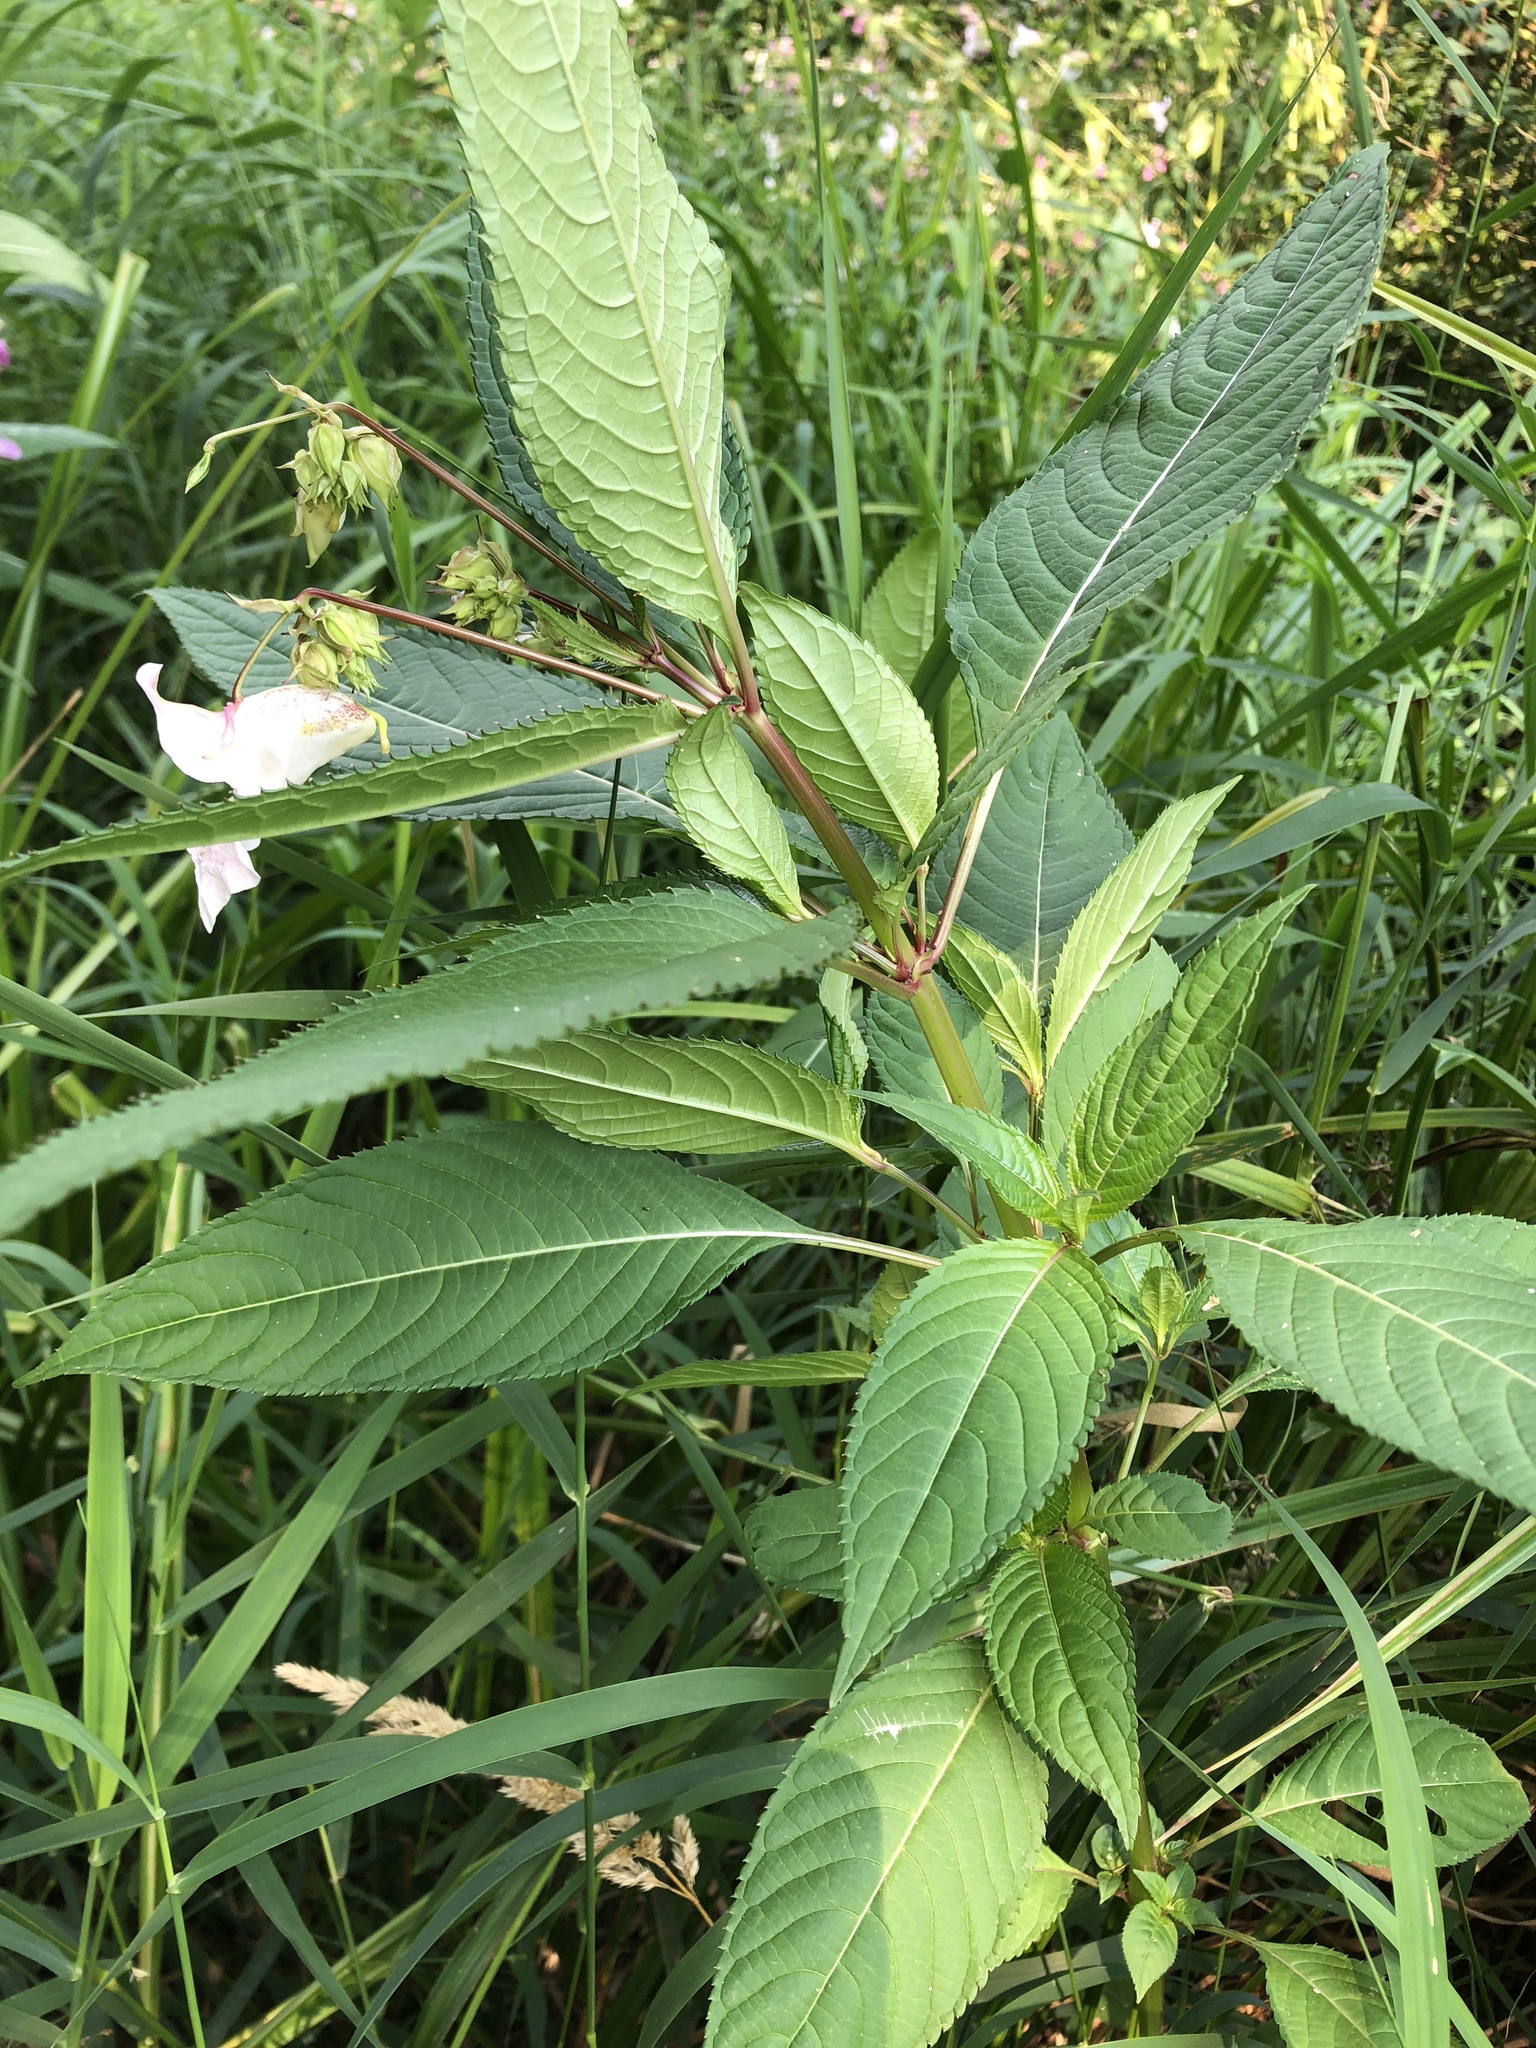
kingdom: Plantae
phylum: Tracheophyta
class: Magnoliopsida
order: Ericales
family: Balsaminaceae
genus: Impatiens
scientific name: Impatiens glandulifera
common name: Himalayan balsam
